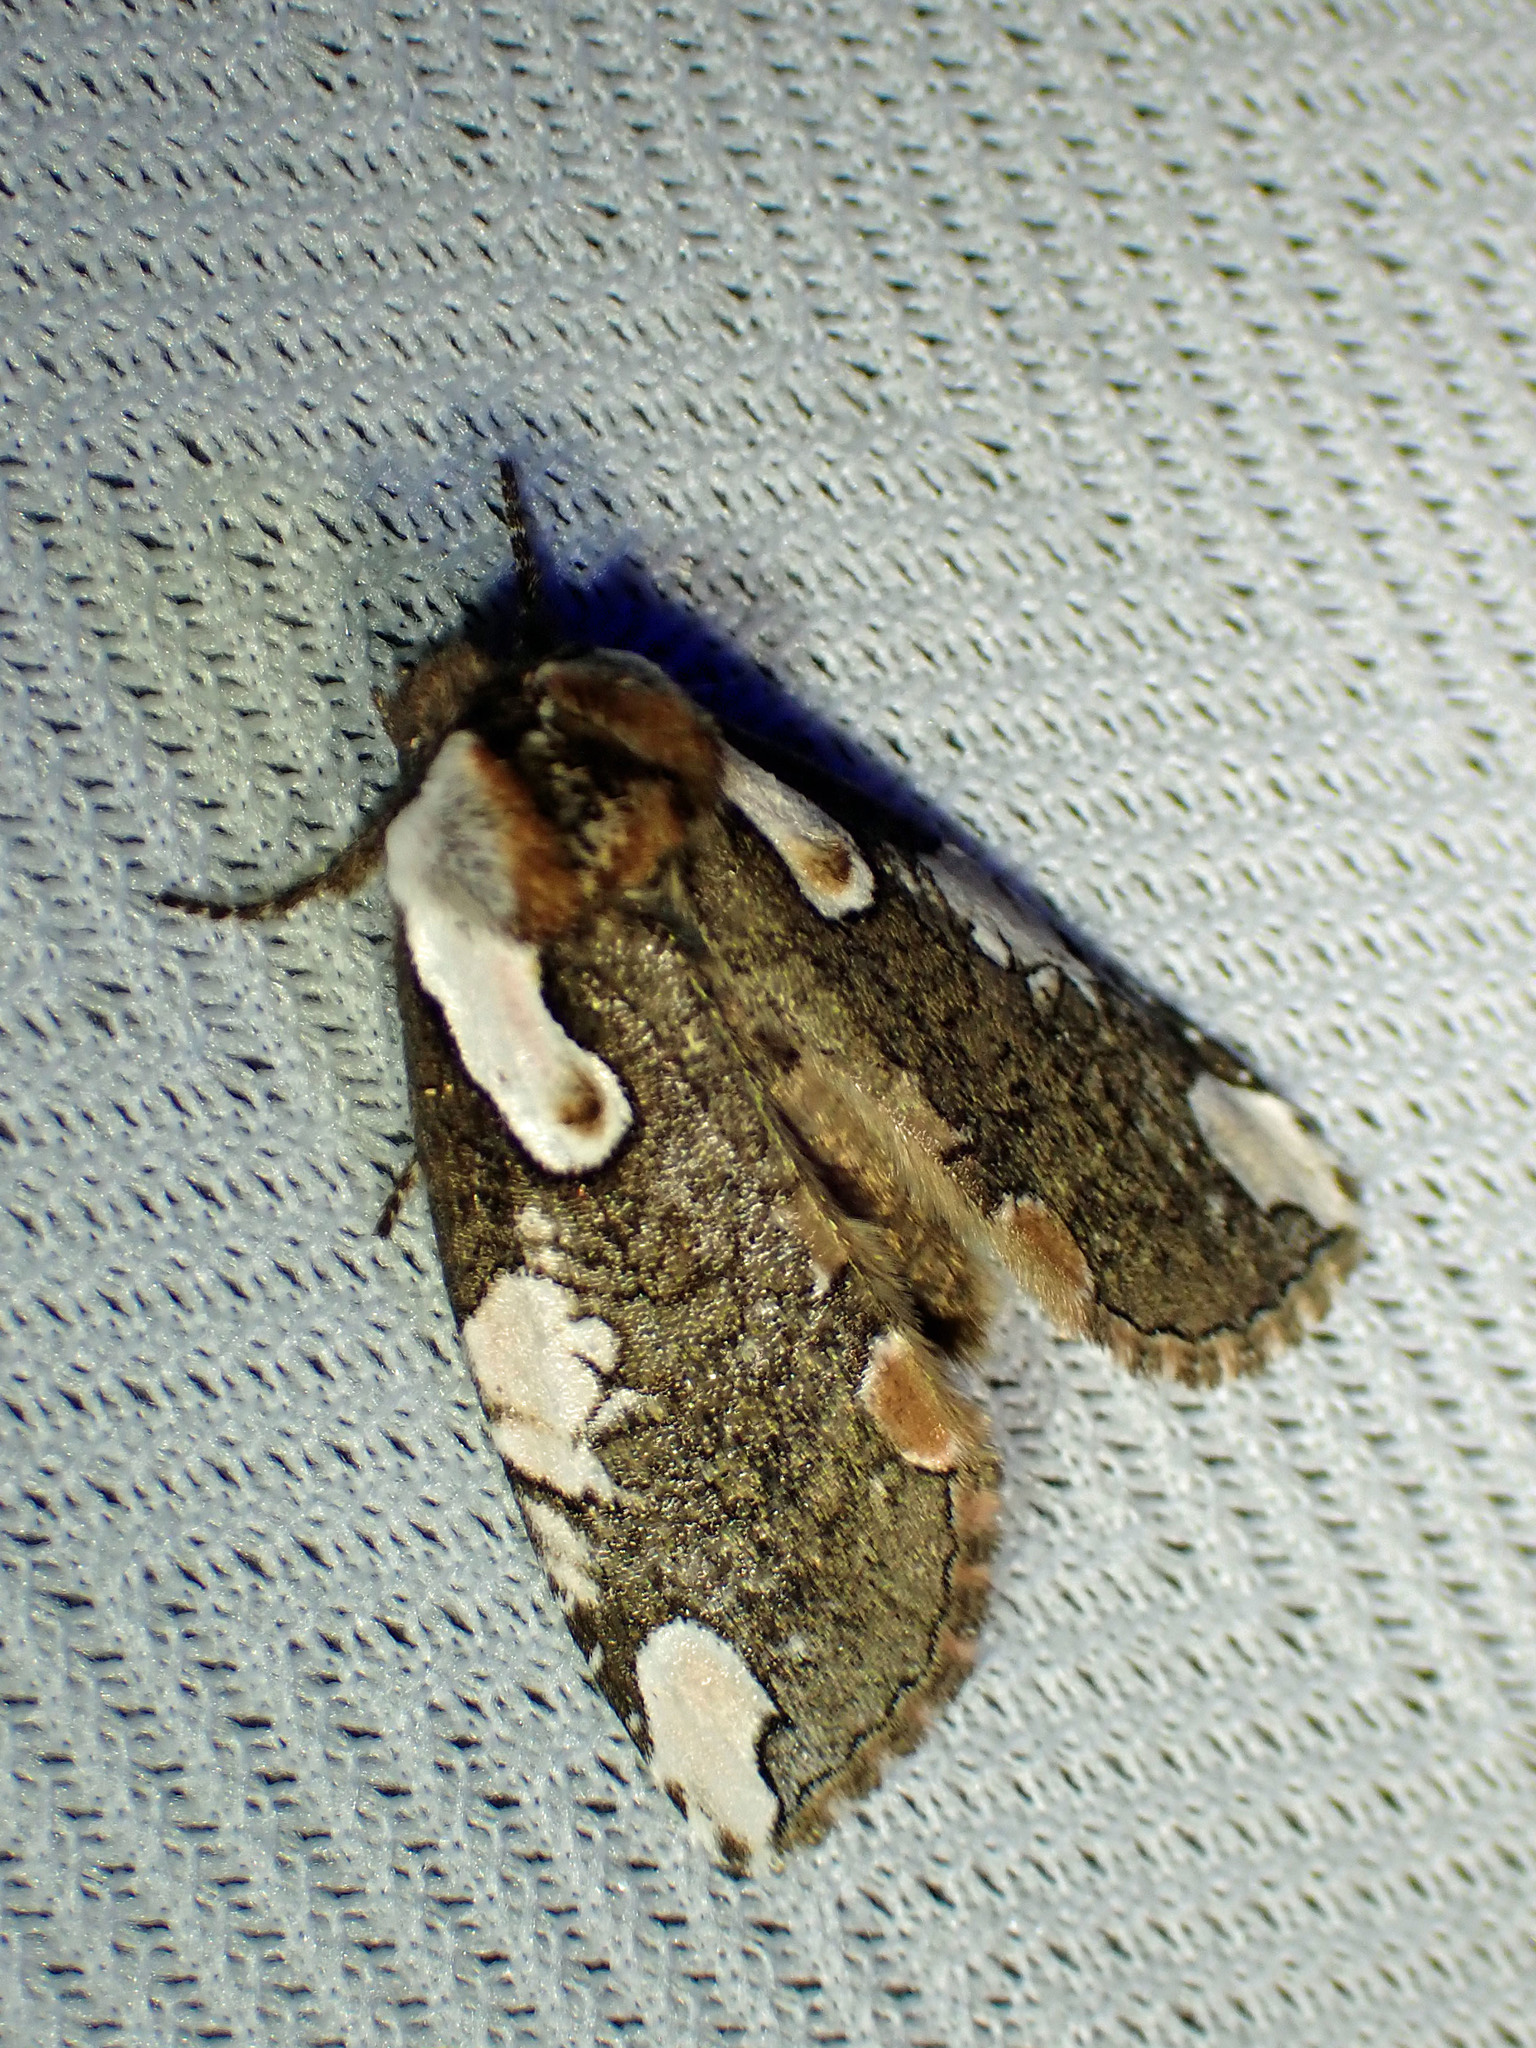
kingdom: Animalia
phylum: Arthropoda
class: Insecta
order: Lepidoptera
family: Drepanidae
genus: Euthyatira
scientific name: Euthyatira pudens
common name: Dogwood thyatirid moth
